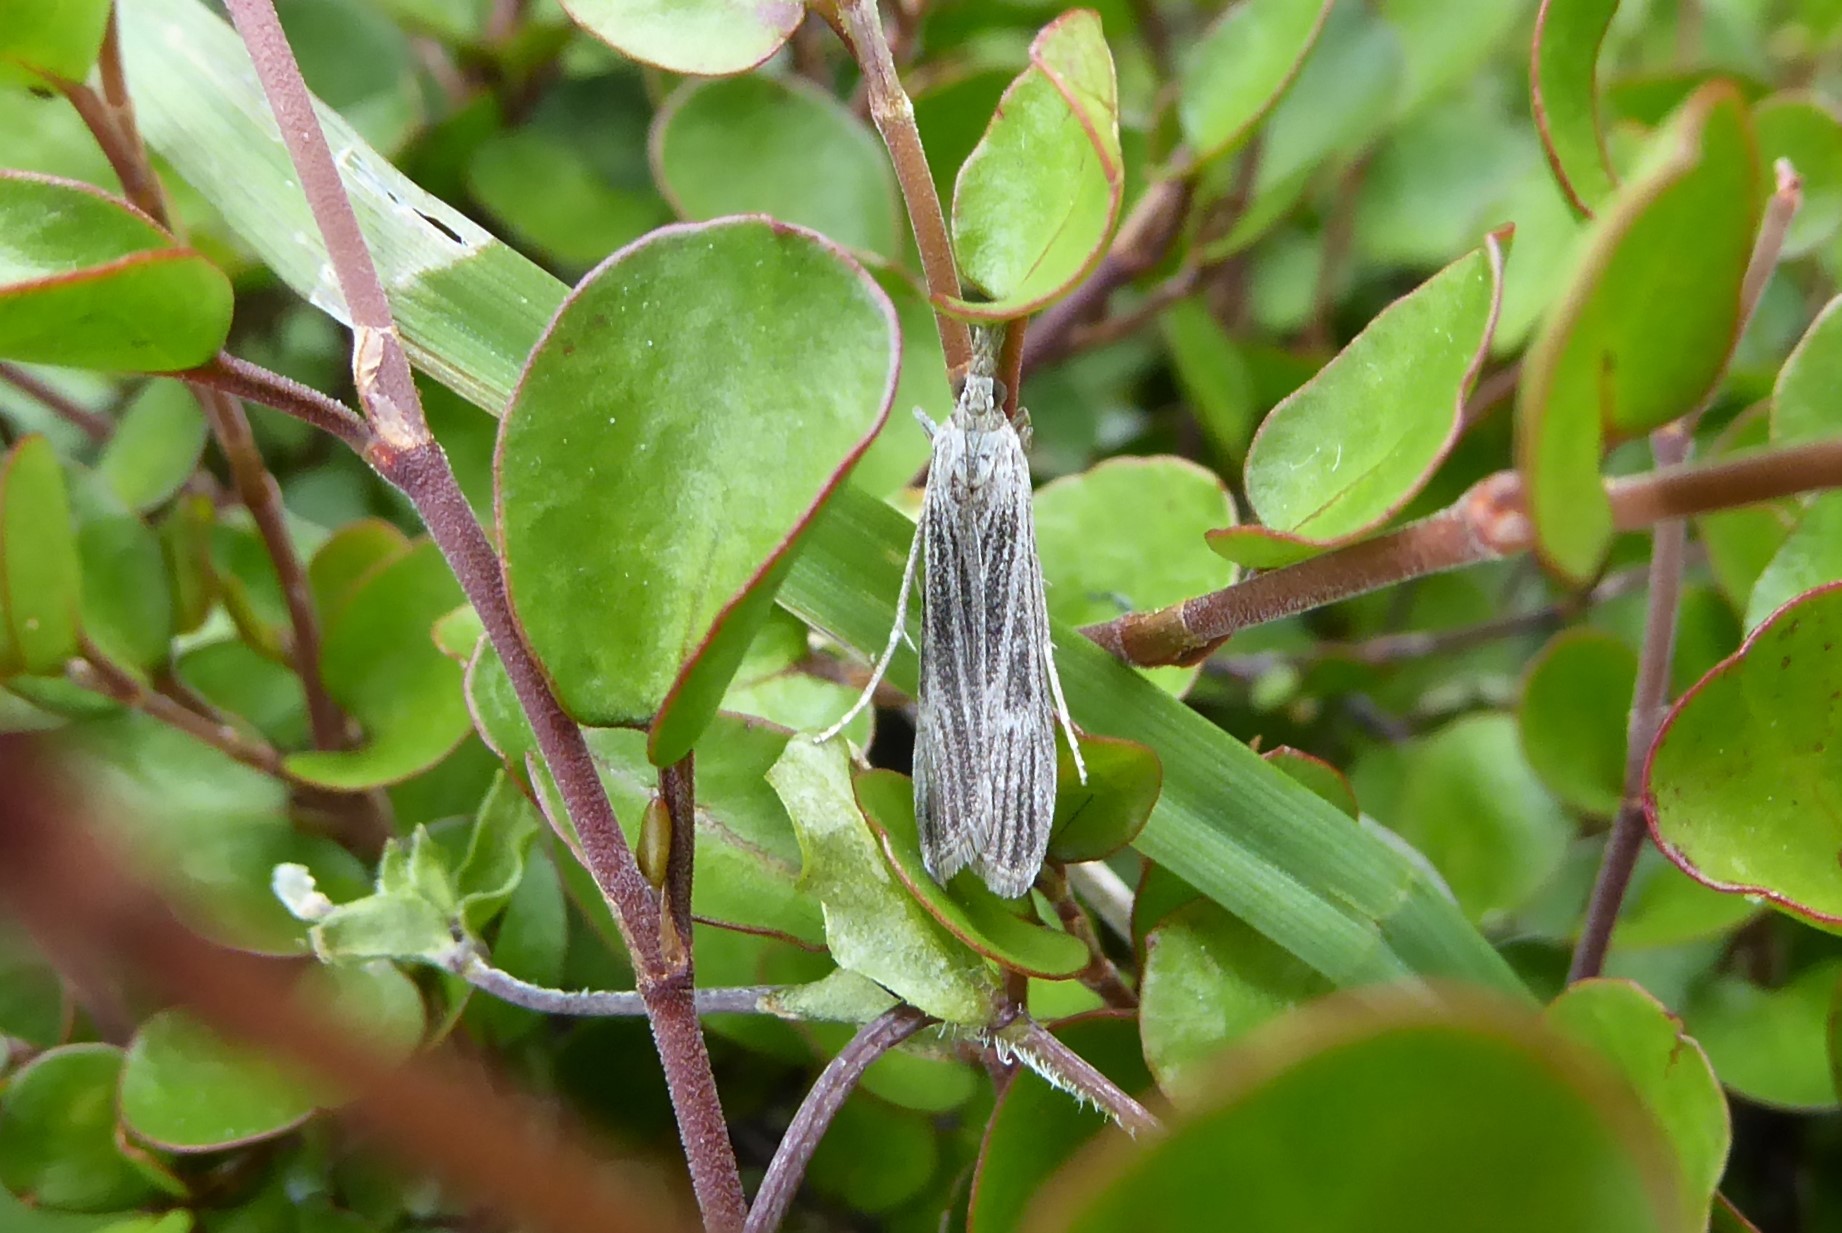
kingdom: Animalia
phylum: Arthropoda
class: Insecta
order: Lepidoptera
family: Crambidae
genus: Eudonia
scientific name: Eudonia atmogramma
